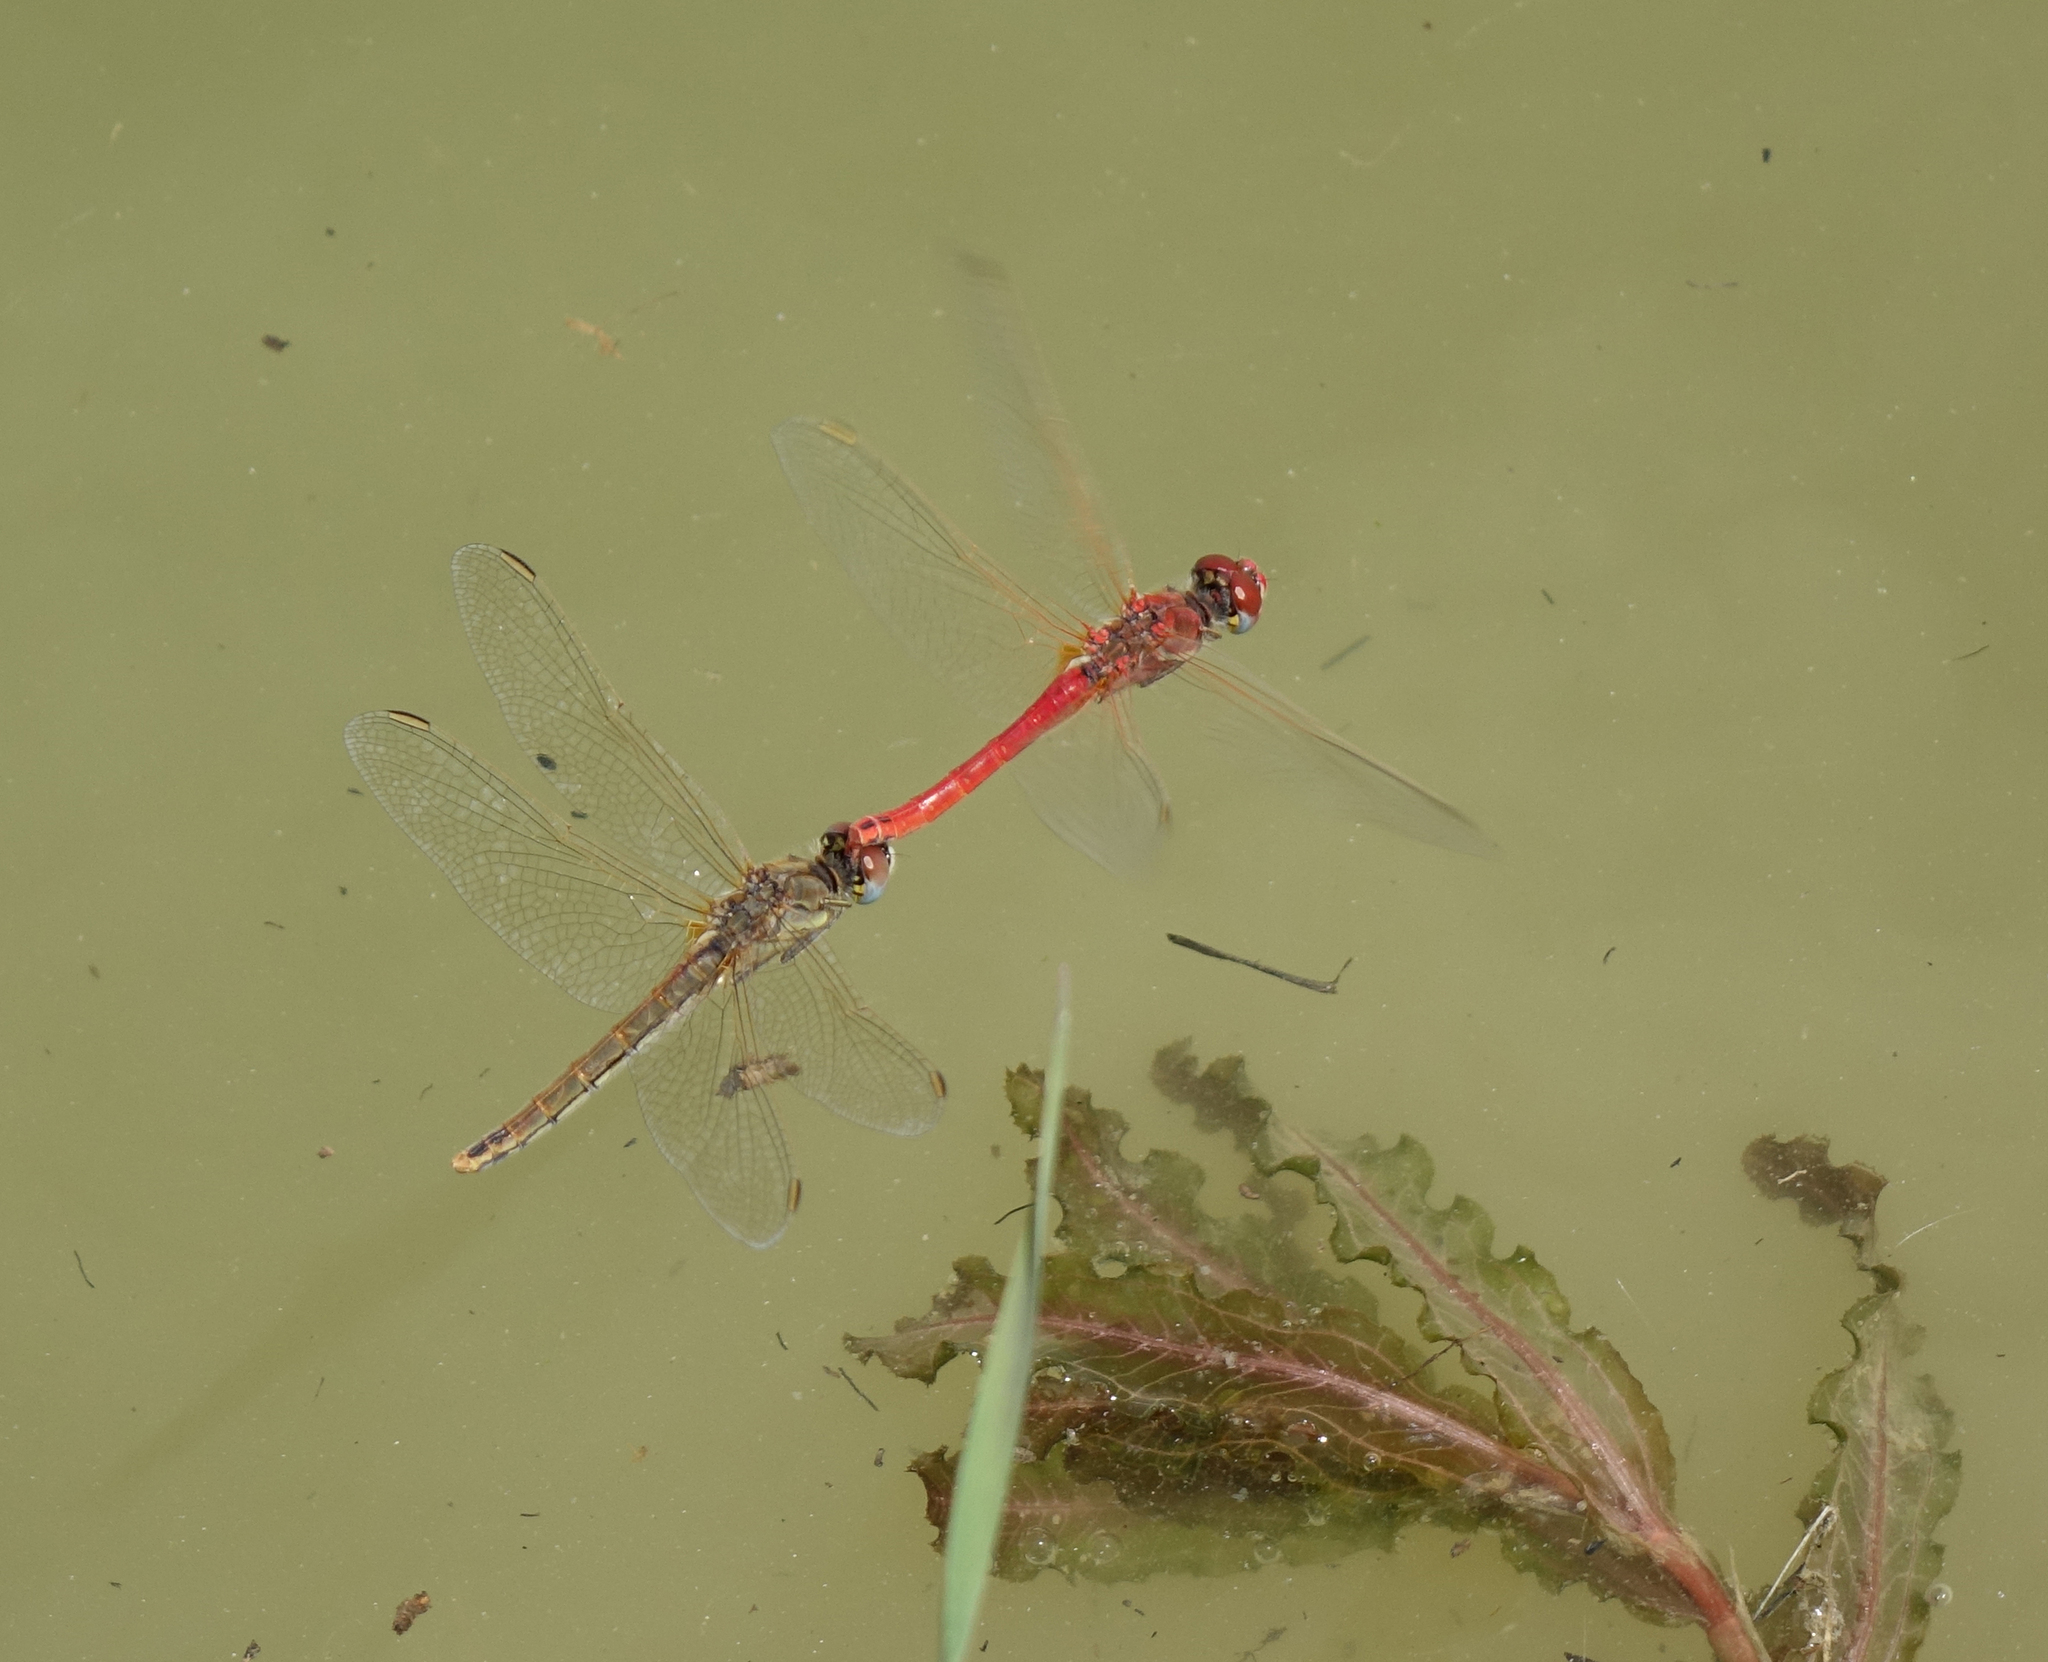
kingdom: Animalia
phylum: Arthropoda
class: Insecta
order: Odonata
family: Libellulidae
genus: Sympetrum
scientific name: Sympetrum fonscolombii
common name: Red-veined darter
